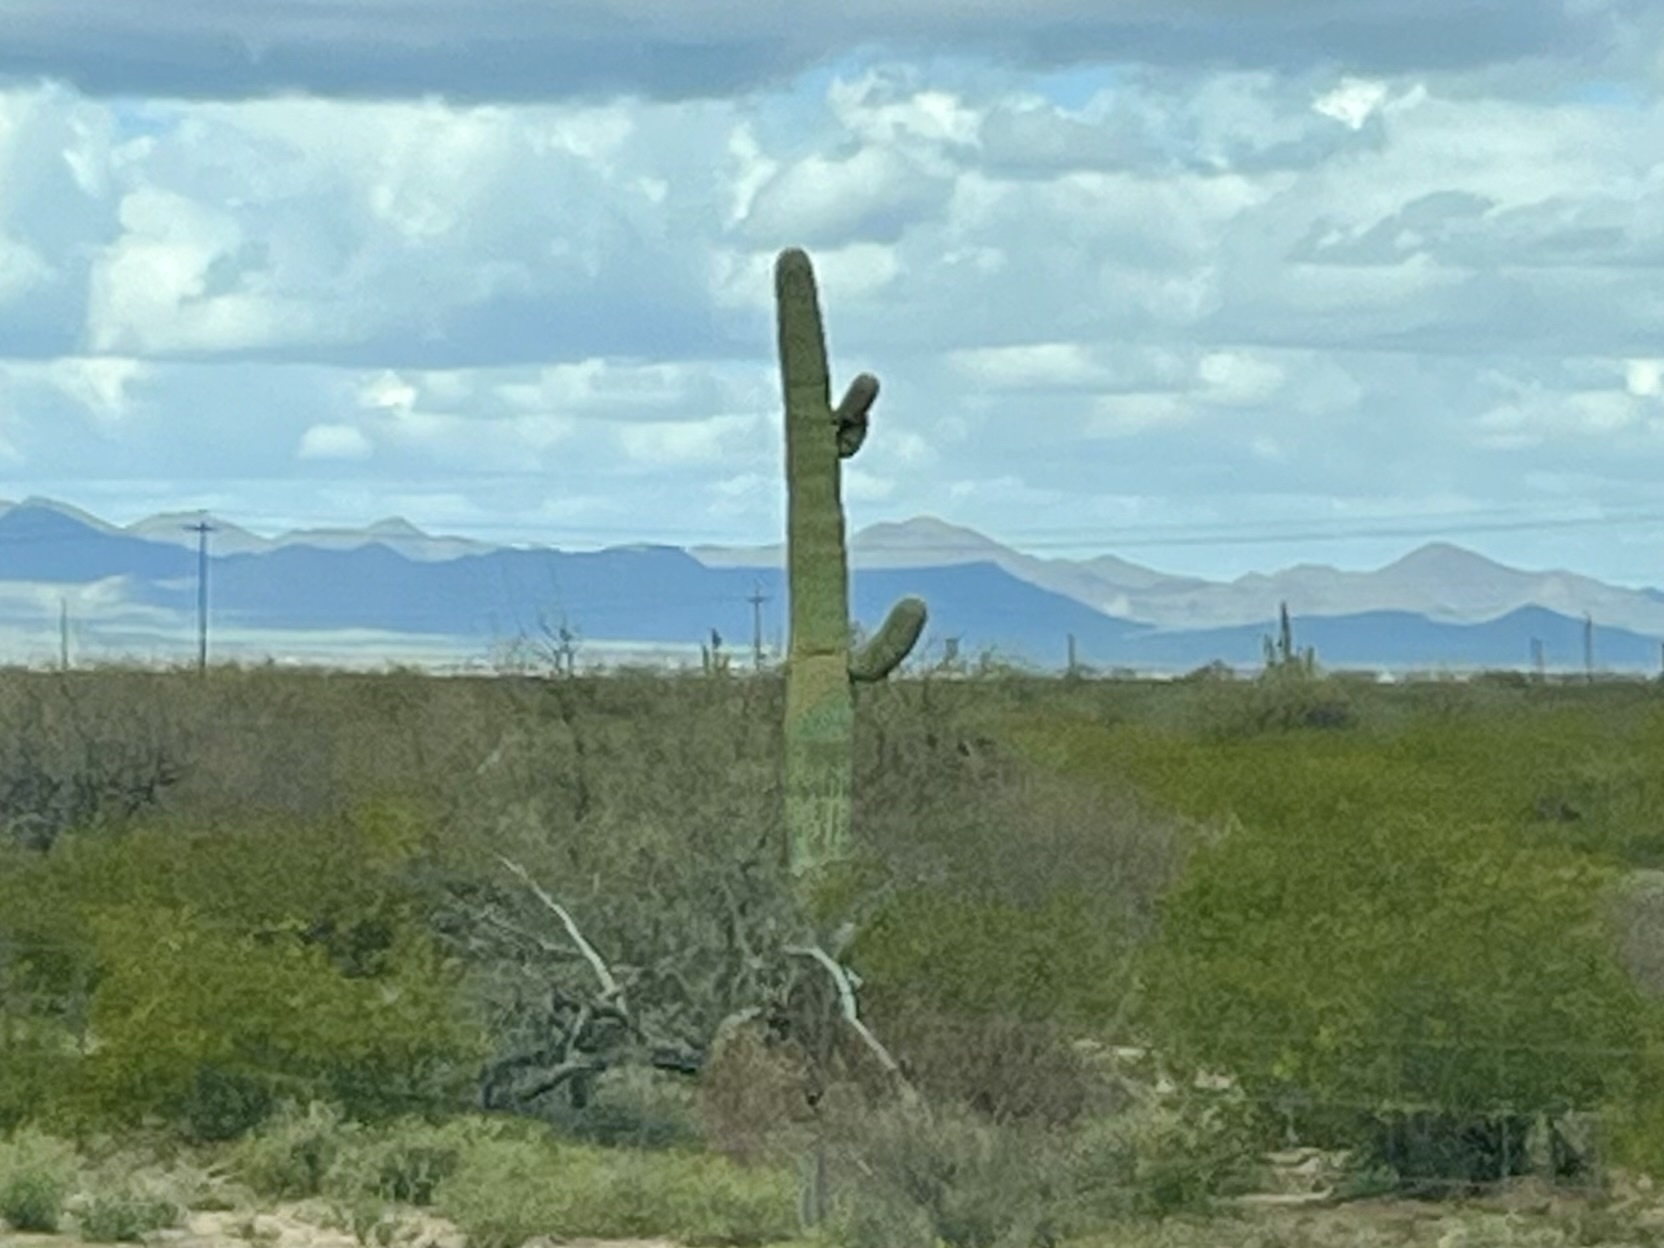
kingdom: Plantae
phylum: Tracheophyta
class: Magnoliopsida
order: Caryophyllales
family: Cactaceae
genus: Carnegiea
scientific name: Carnegiea gigantea
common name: Saguaro
